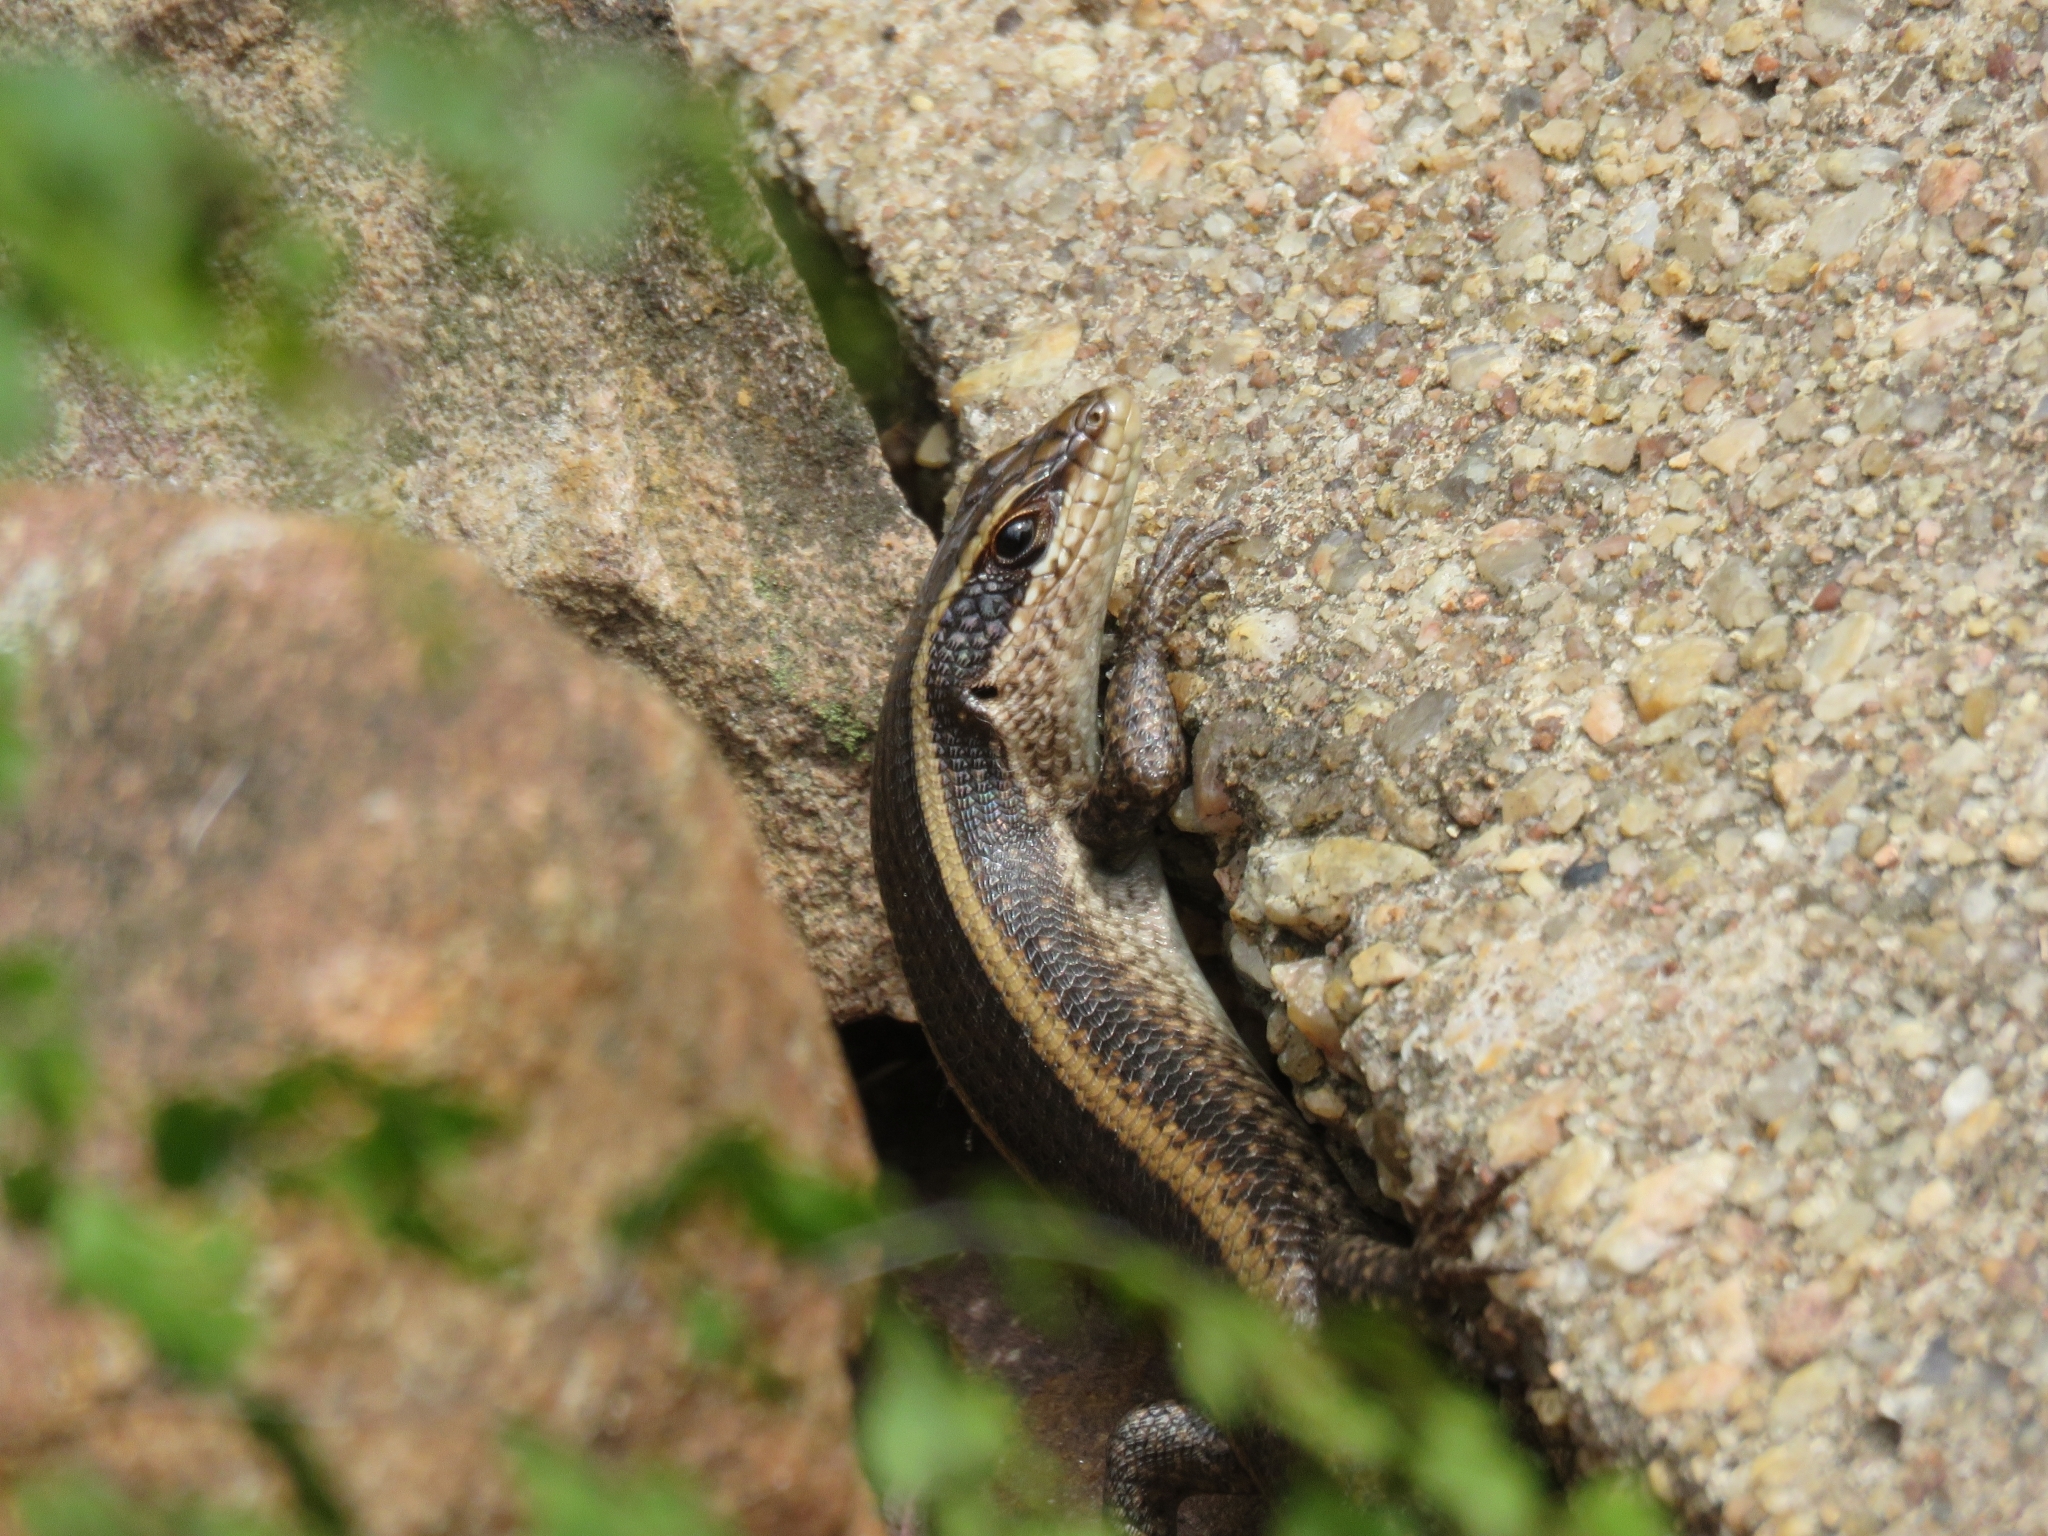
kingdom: Animalia
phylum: Chordata
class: Squamata
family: Scincidae
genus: Trachylepis
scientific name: Trachylepis striata
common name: African striped mabuya
